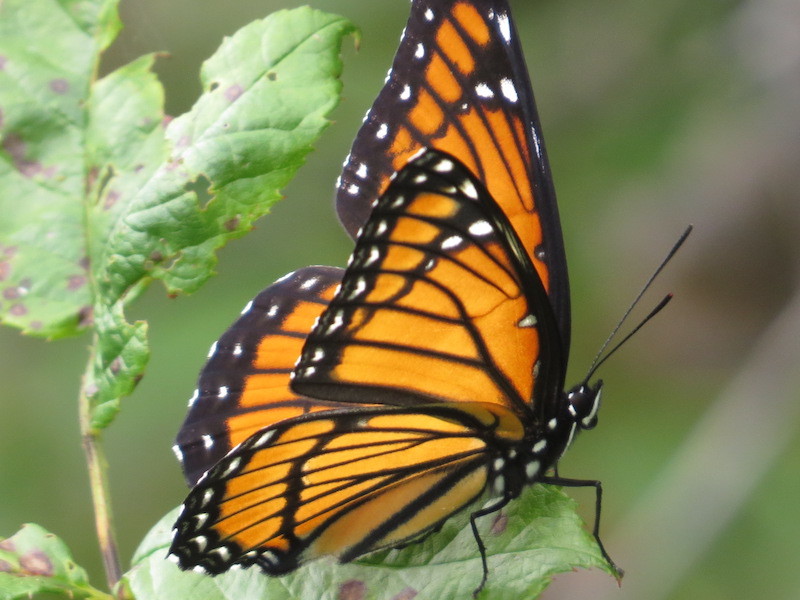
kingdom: Animalia
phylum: Arthropoda
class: Insecta
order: Lepidoptera
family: Nymphalidae
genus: Limenitis
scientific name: Limenitis archippus
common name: Viceroy
